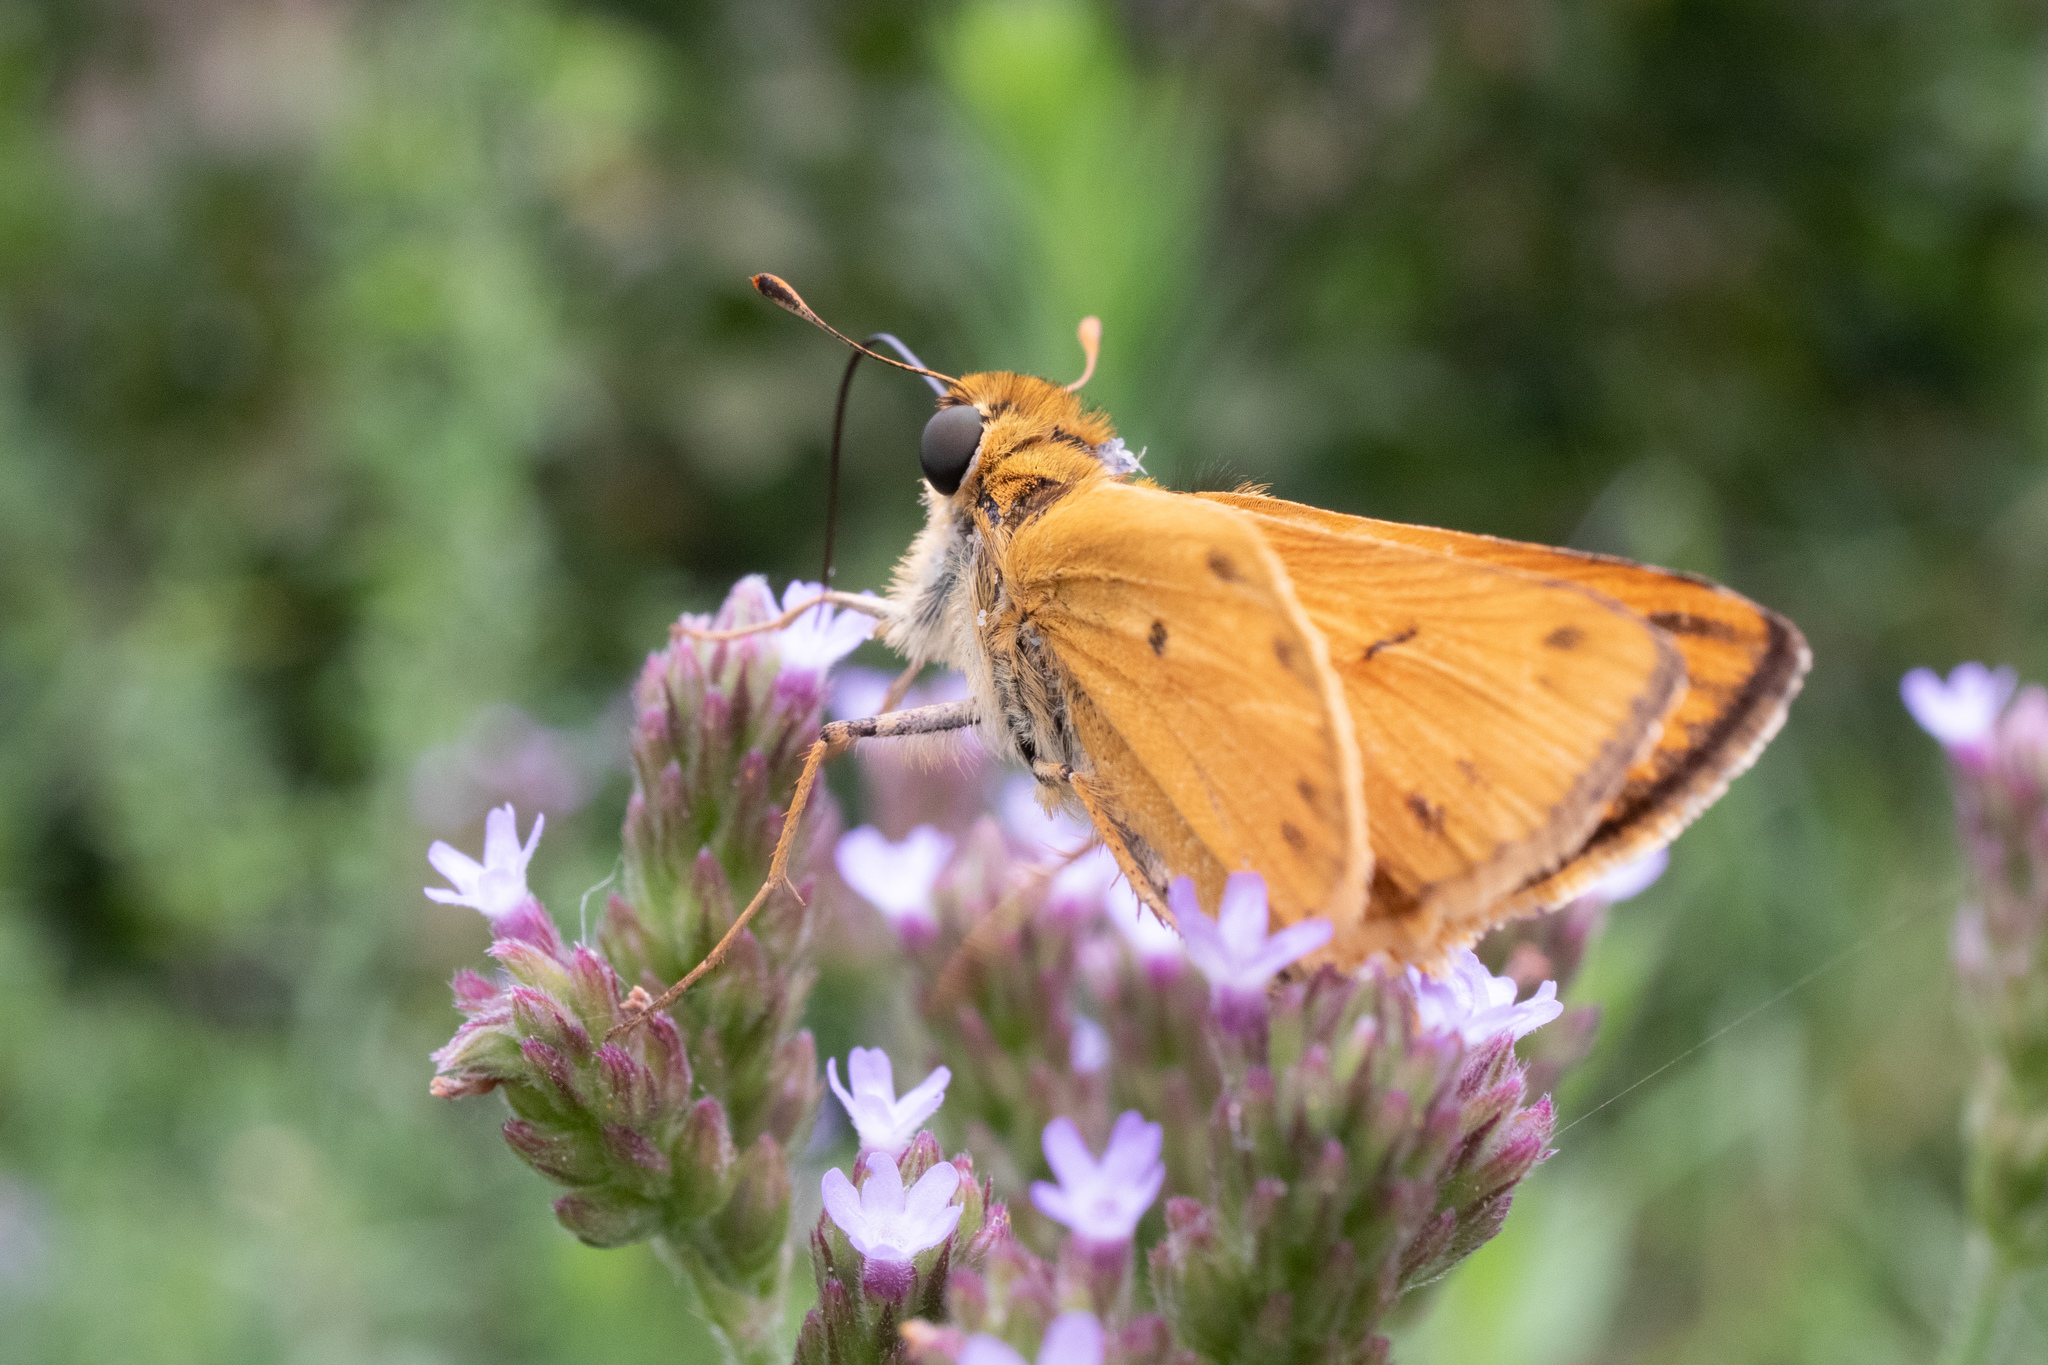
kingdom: Animalia
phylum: Arthropoda
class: Insecta
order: Lepidoptera
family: Hesperiidae
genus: Hylephila
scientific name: Hylephila phyleus
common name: Fiery skipper
